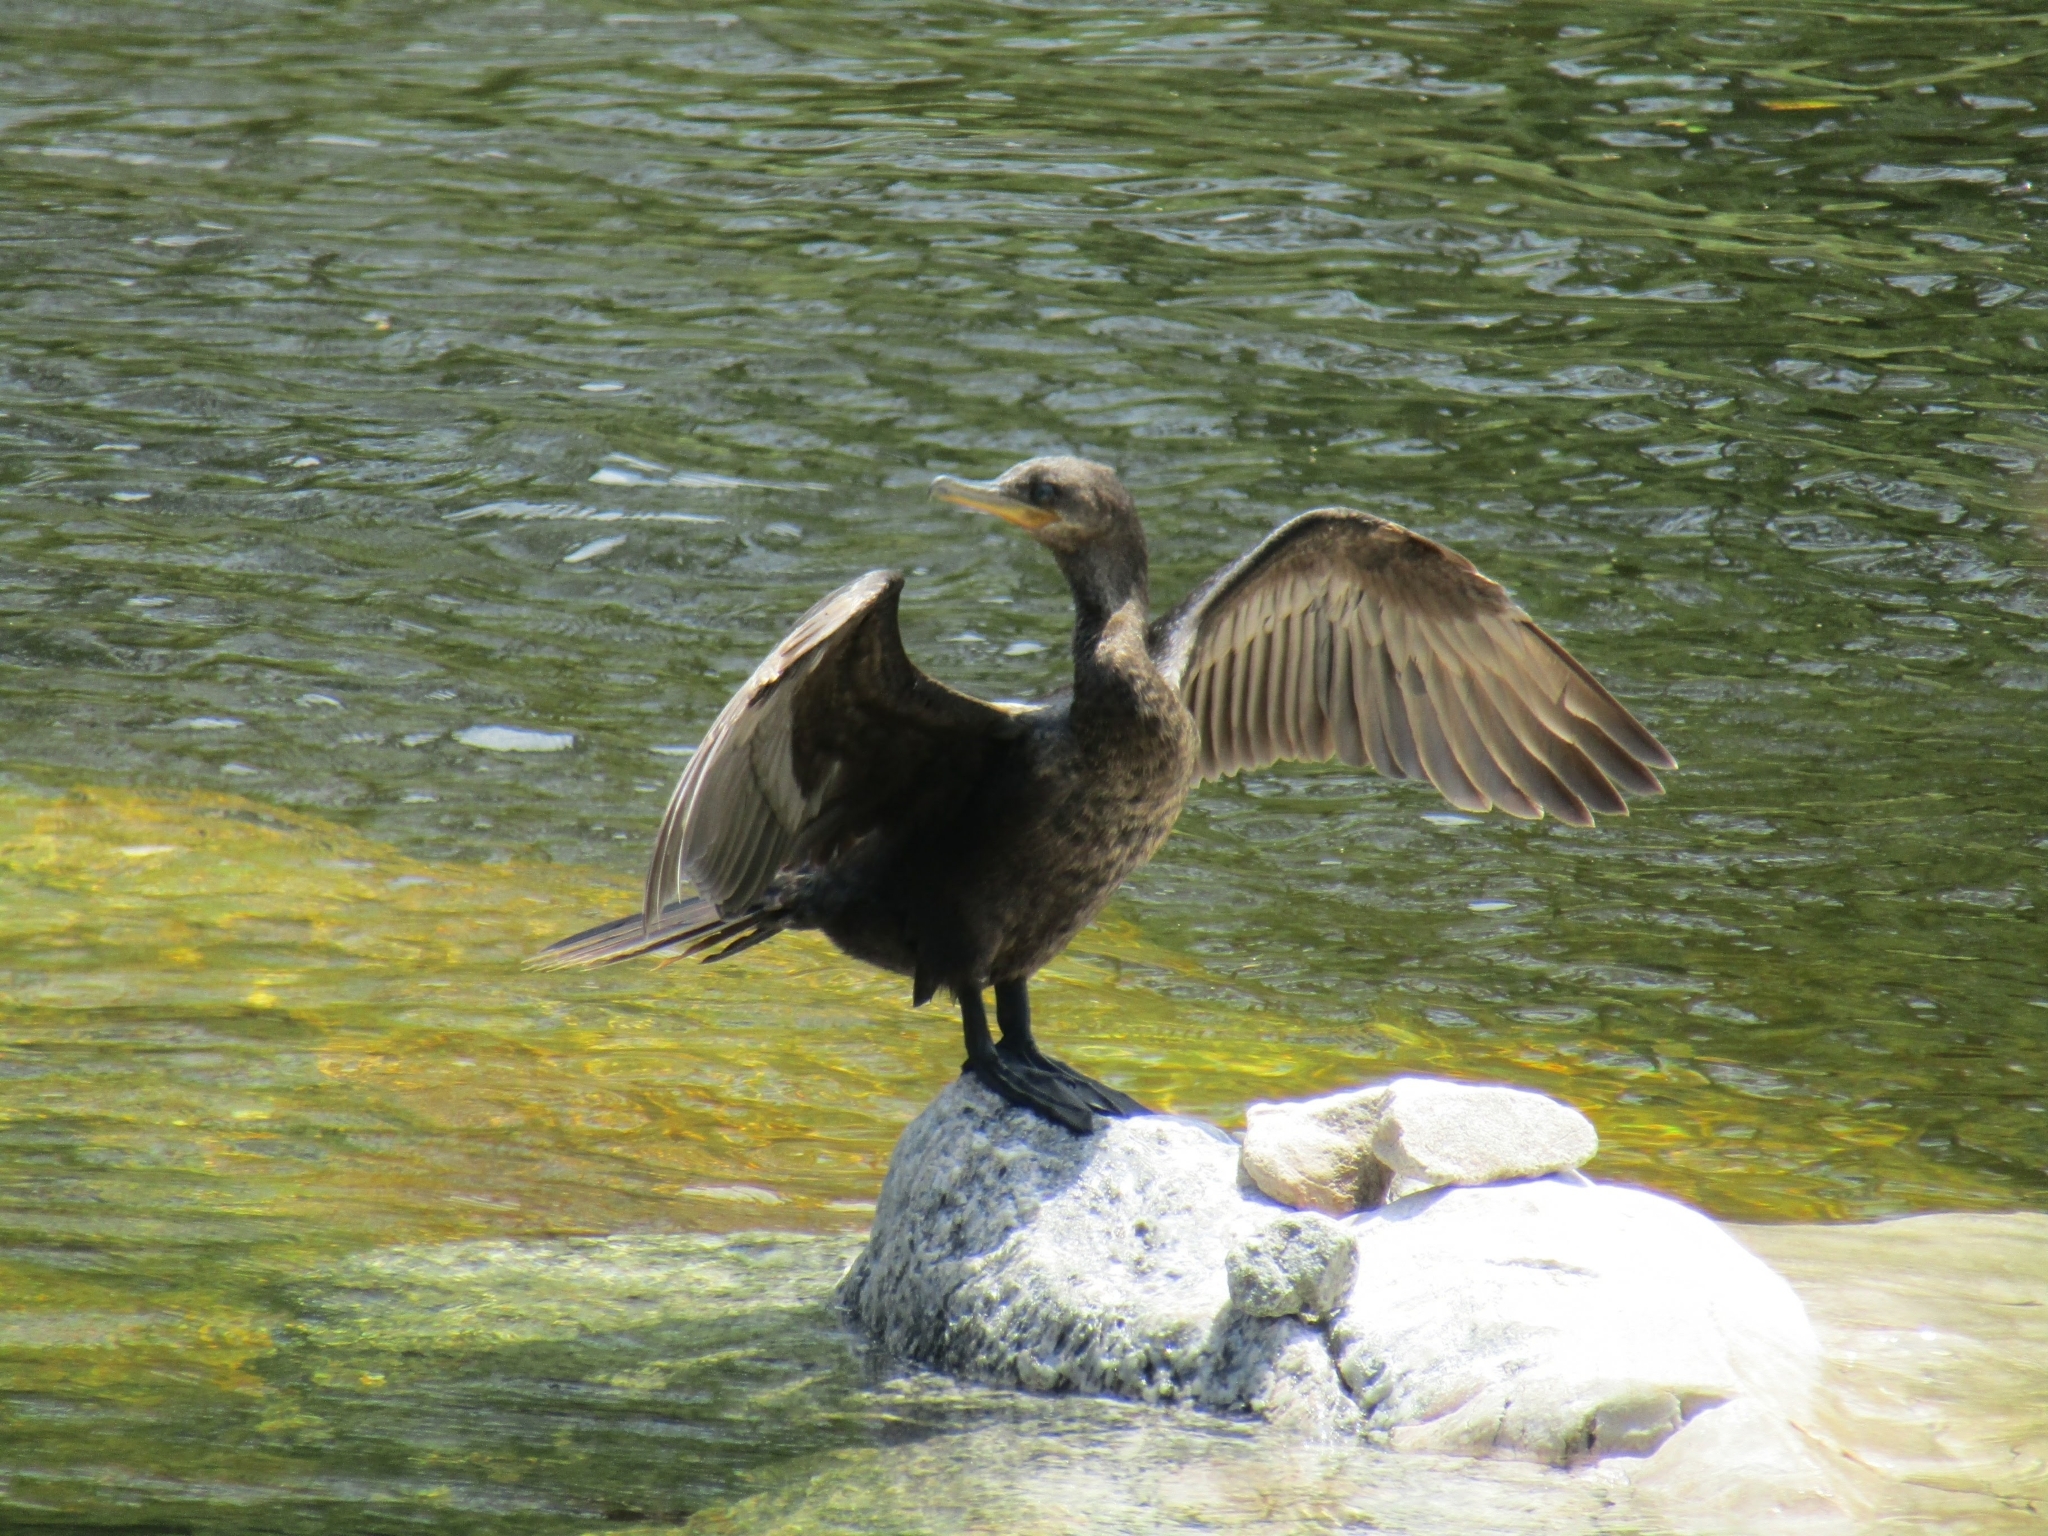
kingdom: Animalia
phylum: Chordata
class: Aves
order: Suliformes
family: Phalacrocoracidae
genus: Phalacrocorax
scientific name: Phalacrocorax brasilianus
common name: Neotropic cormorant
